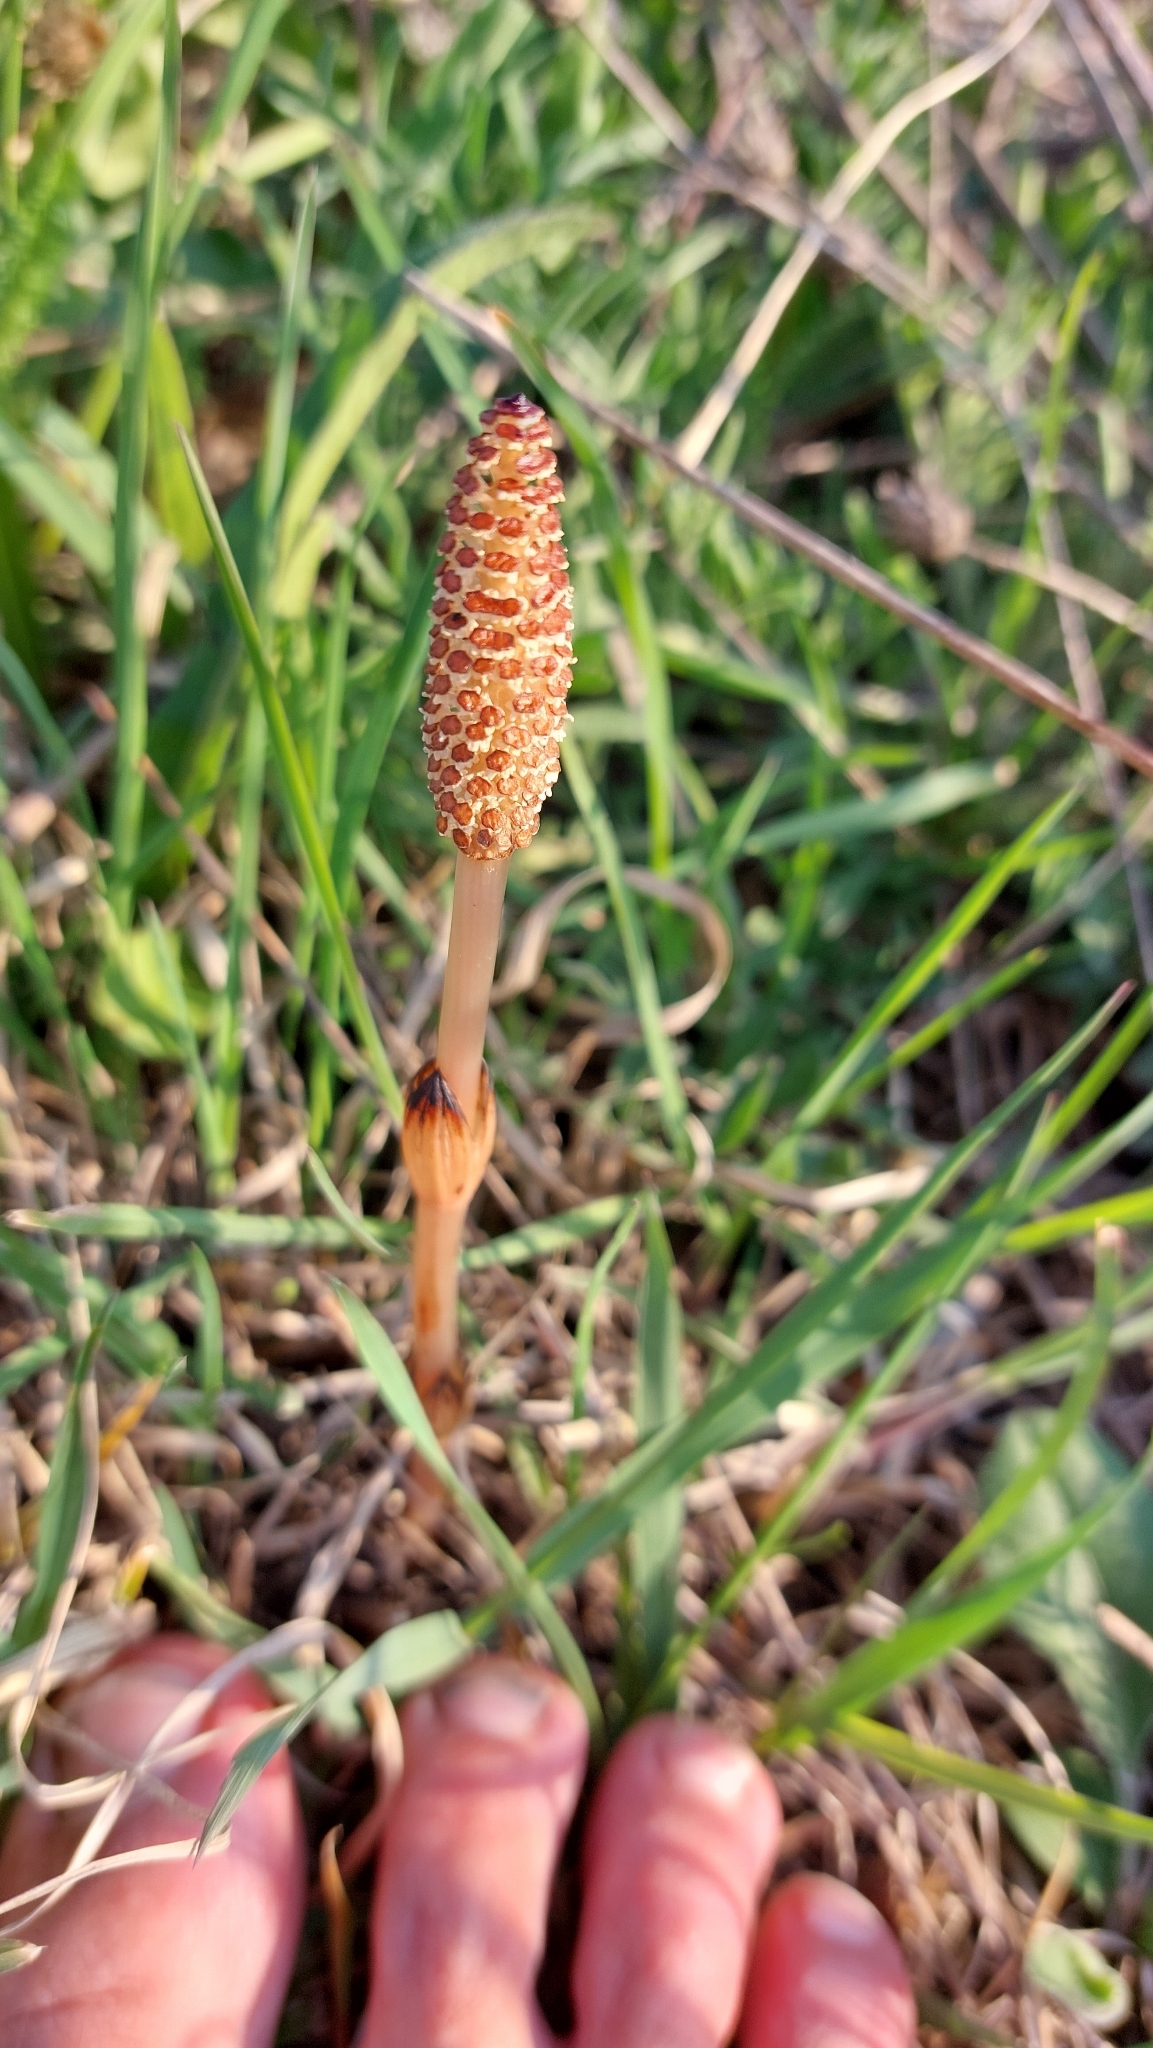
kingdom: Plantae
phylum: Tracheophyta
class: Polypodiopsida
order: Equisetales
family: Equisetaceae
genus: Equisetum
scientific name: Equisetum arvense
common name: Field horsetail
